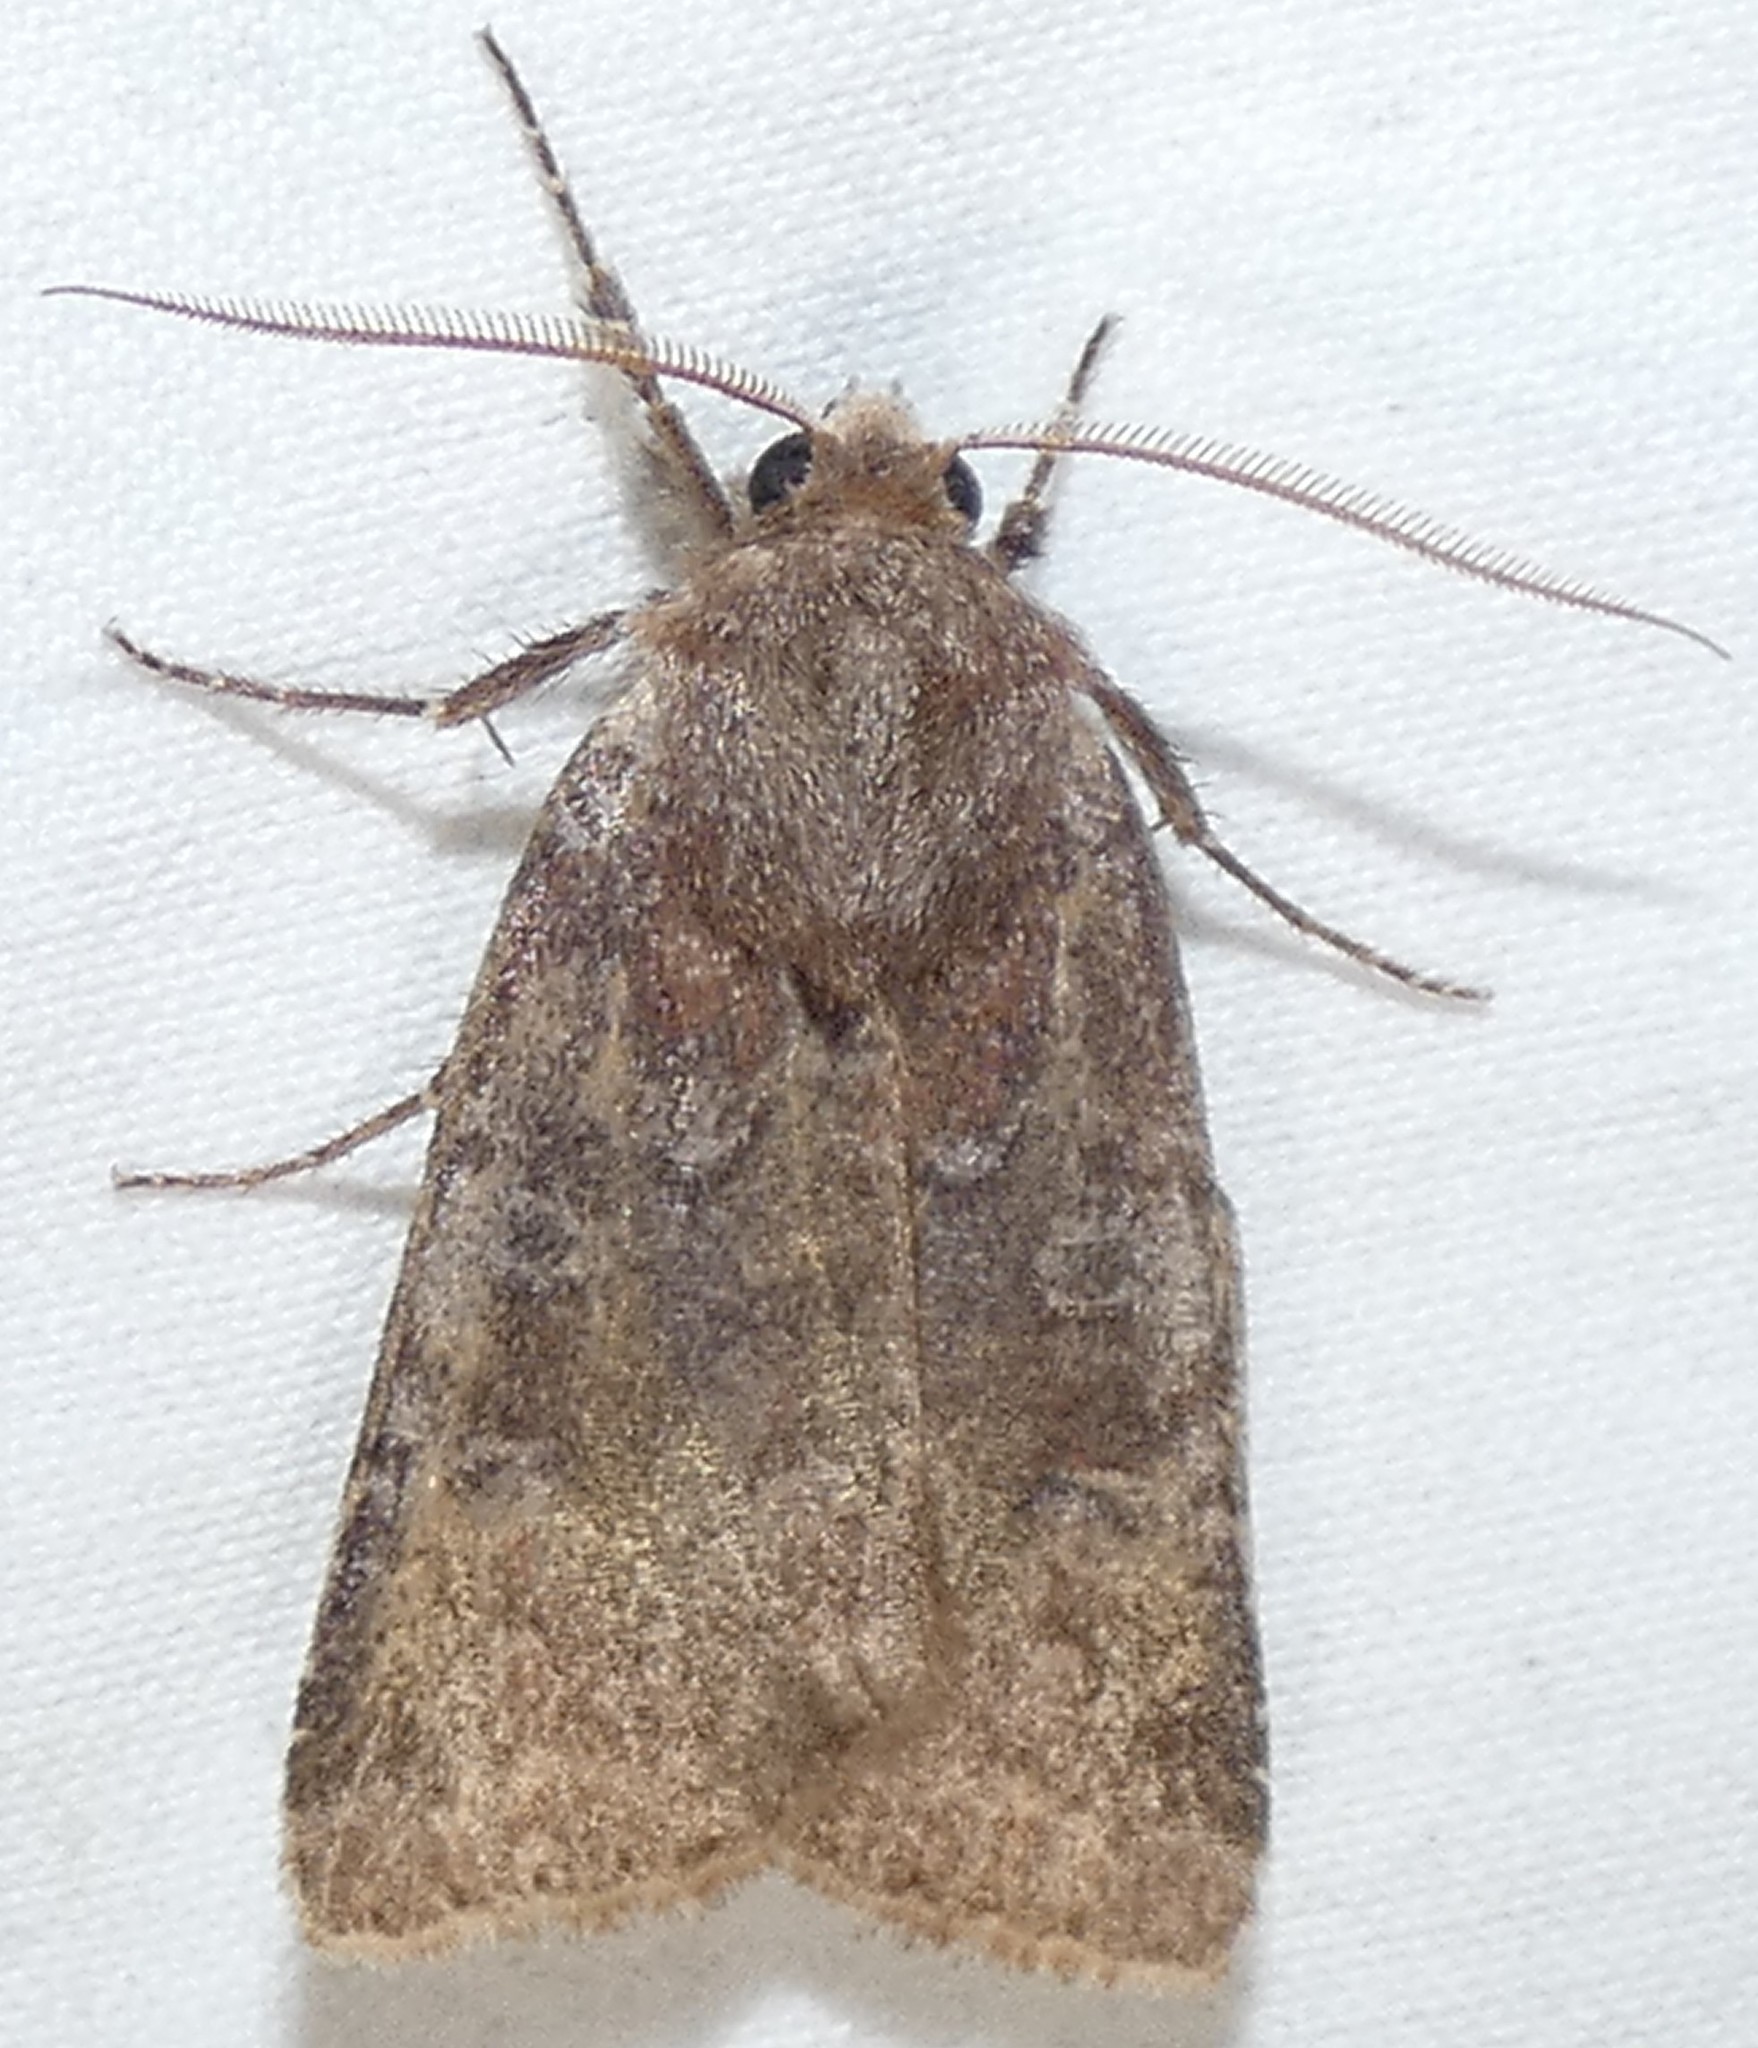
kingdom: Animalia
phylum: Arthropoda
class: Insecta
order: Lepidoptera
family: Noctuidae
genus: Cerastis
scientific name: Cerastis tenebrifera
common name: Reddish speckled dart
